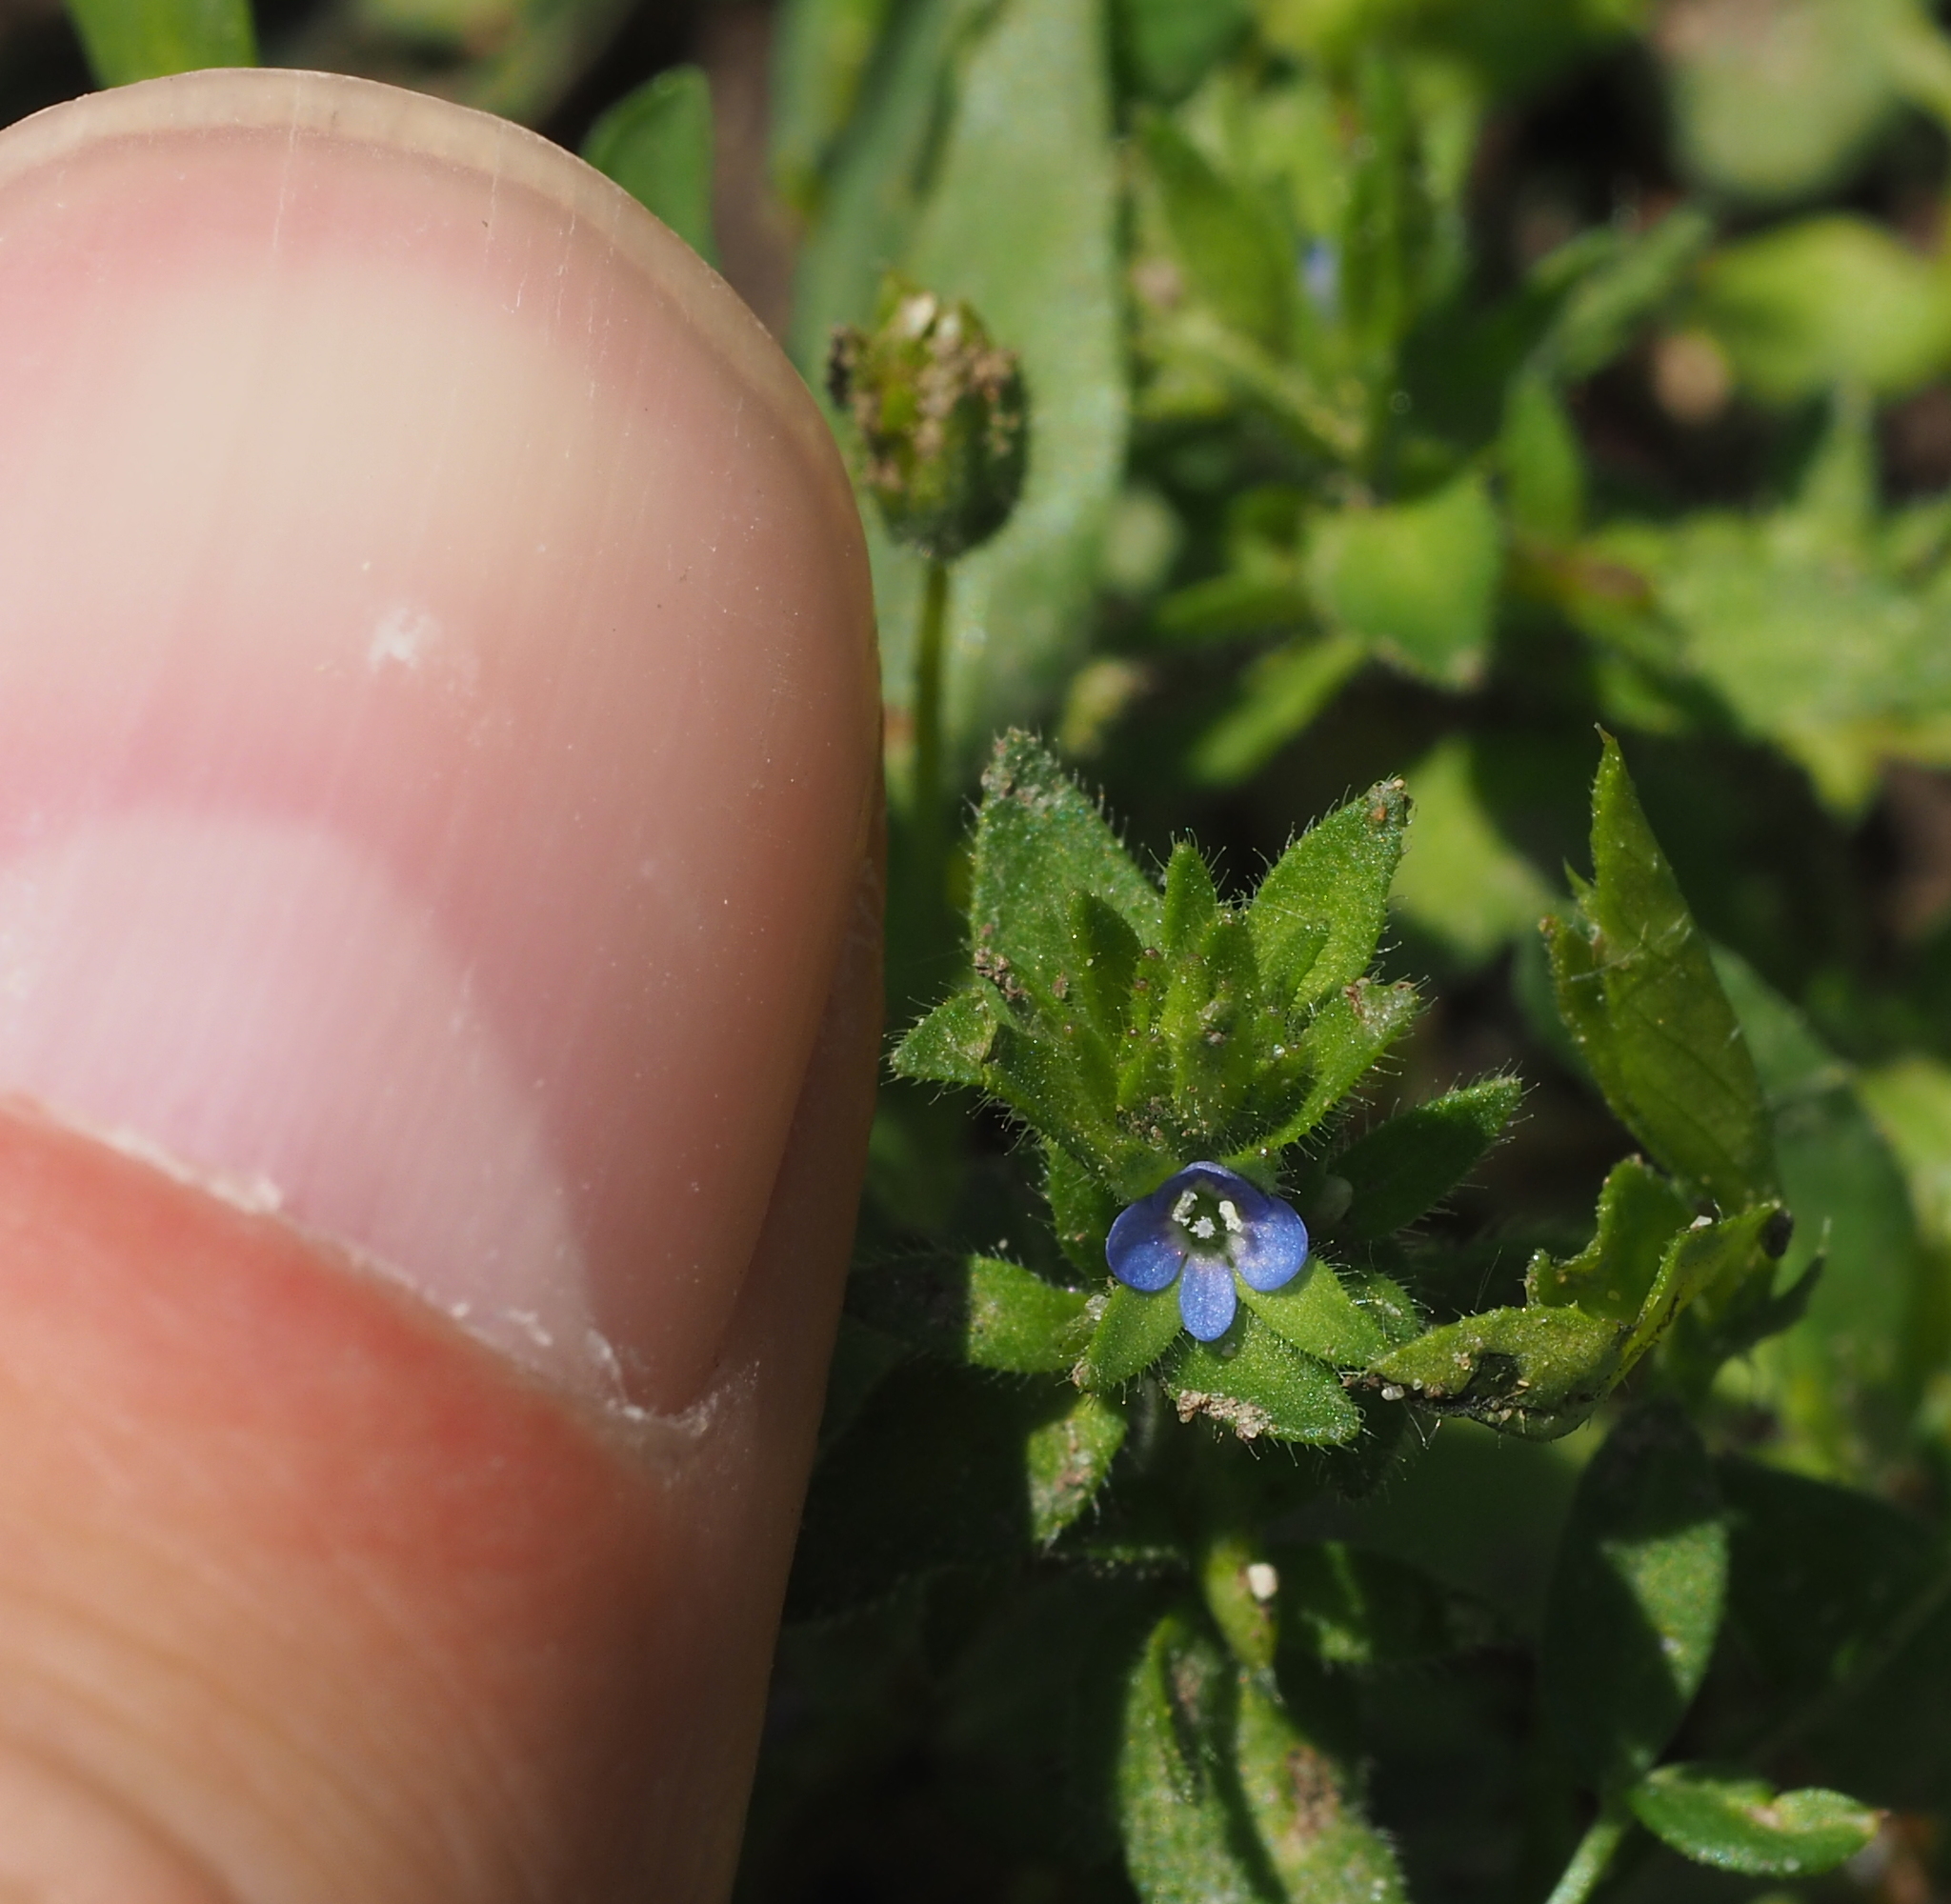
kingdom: Plantae
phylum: Tracheophyta
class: Magnoliopsida
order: Lamiales
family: Plantaginaceae
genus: Veronica
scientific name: Veronica arvensis
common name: Corn speedwell
